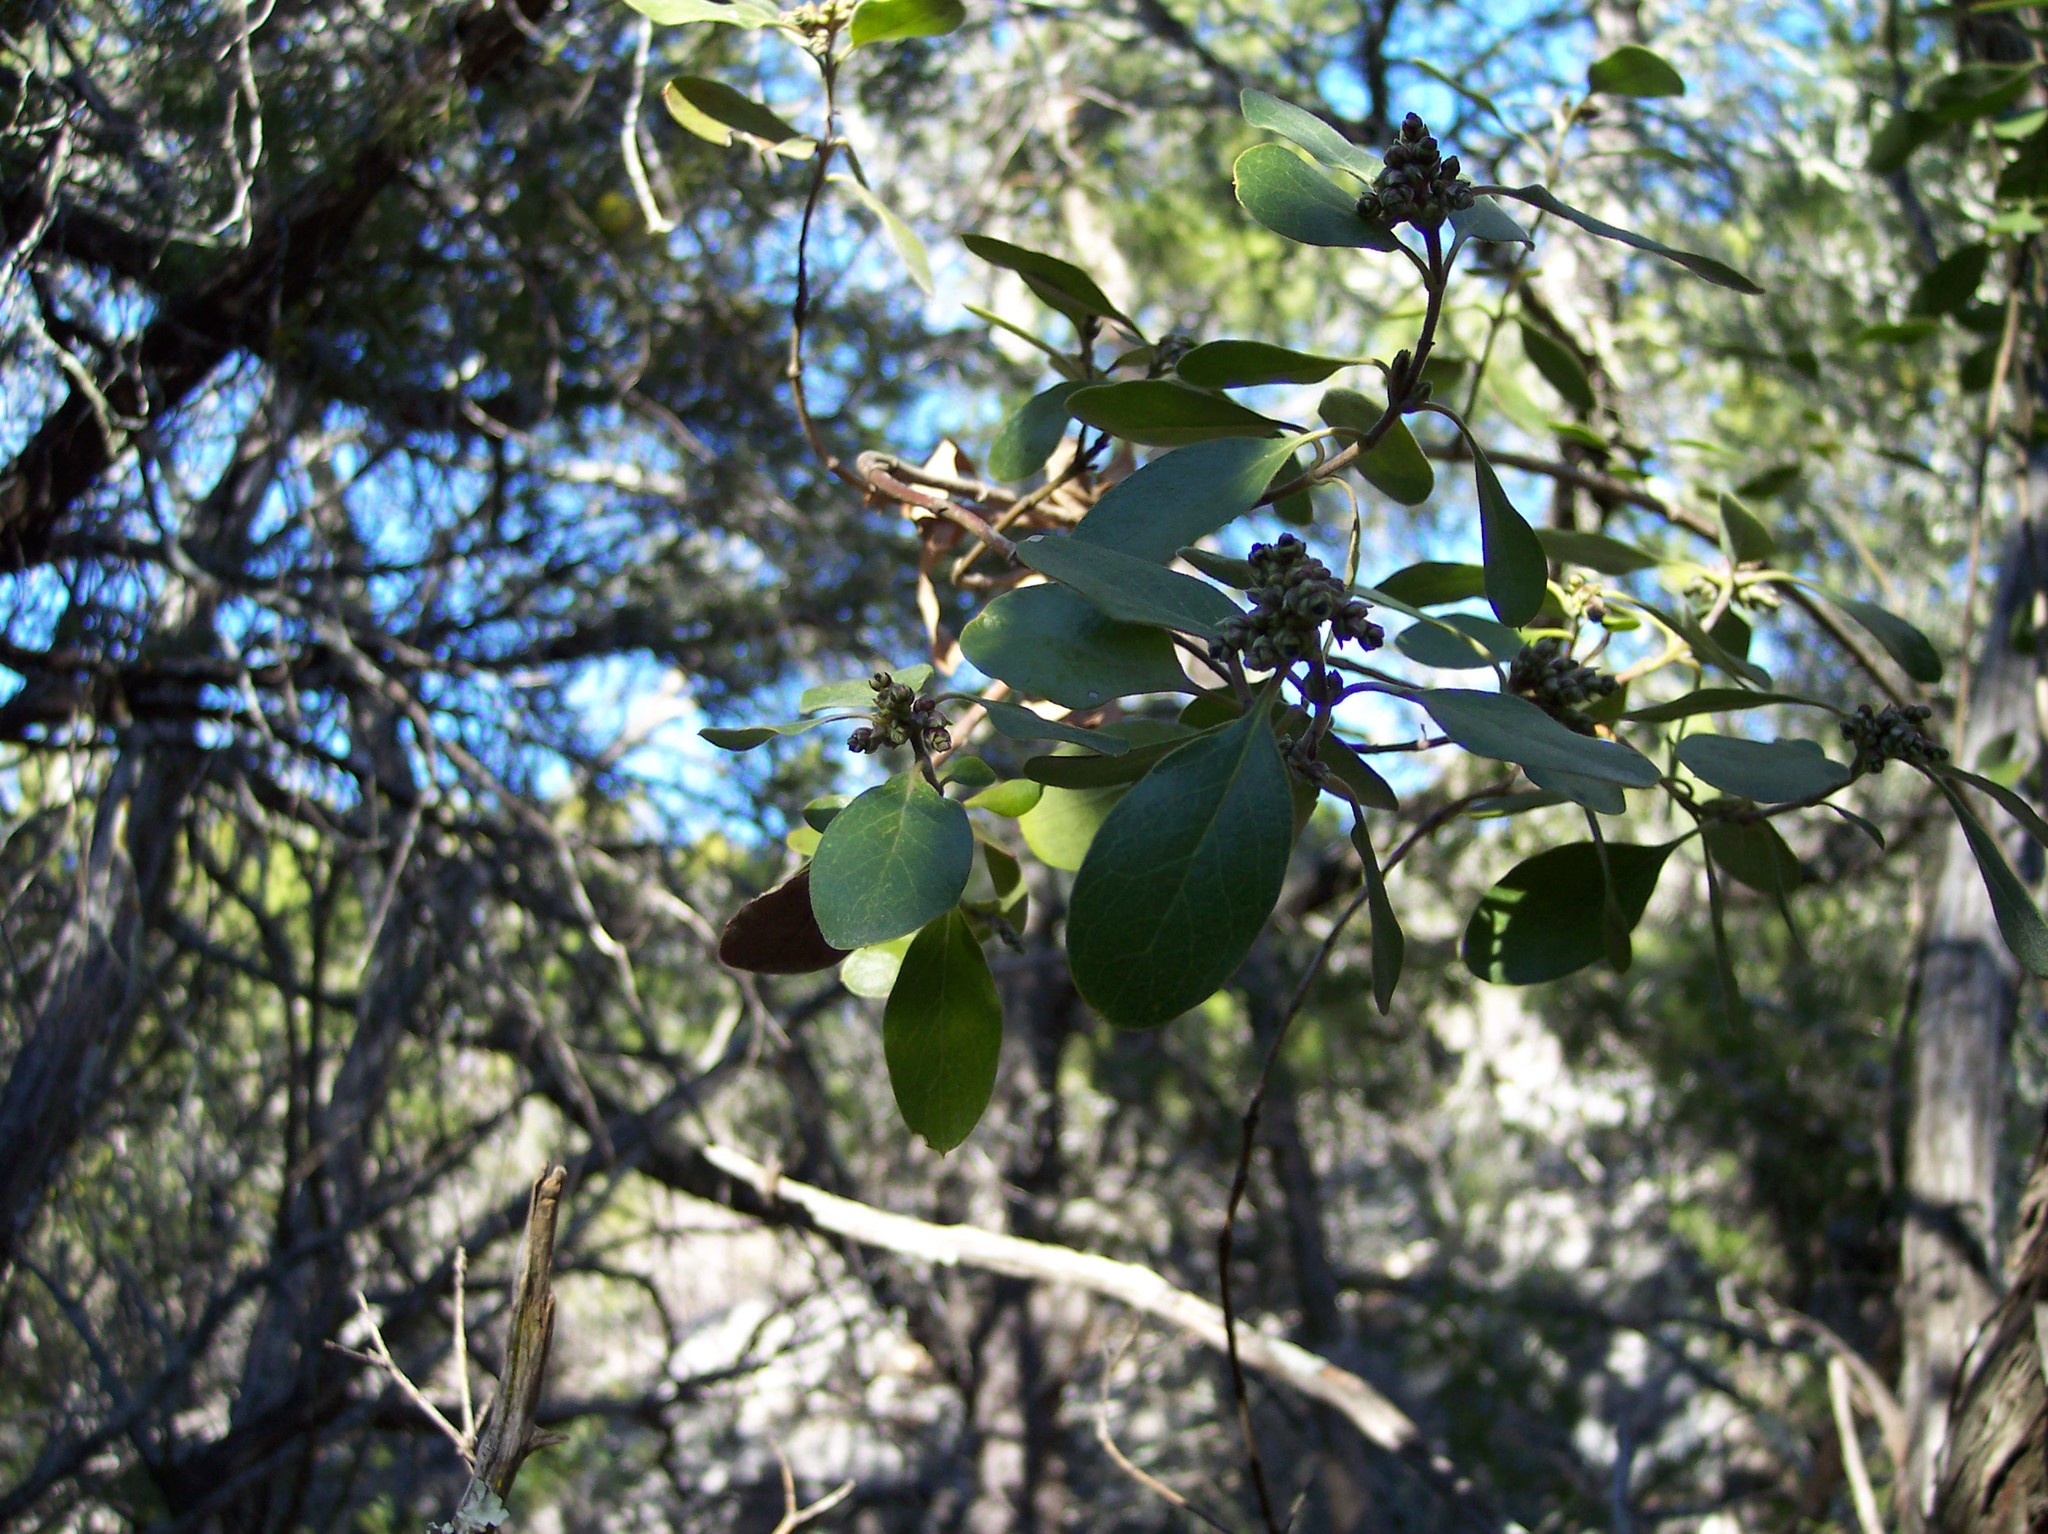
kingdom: Plantae
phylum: Tracheophyta
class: Magnoliopsida
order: Garryales
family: Garryaceae
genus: Garrya
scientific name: Garrya lindheimeri
